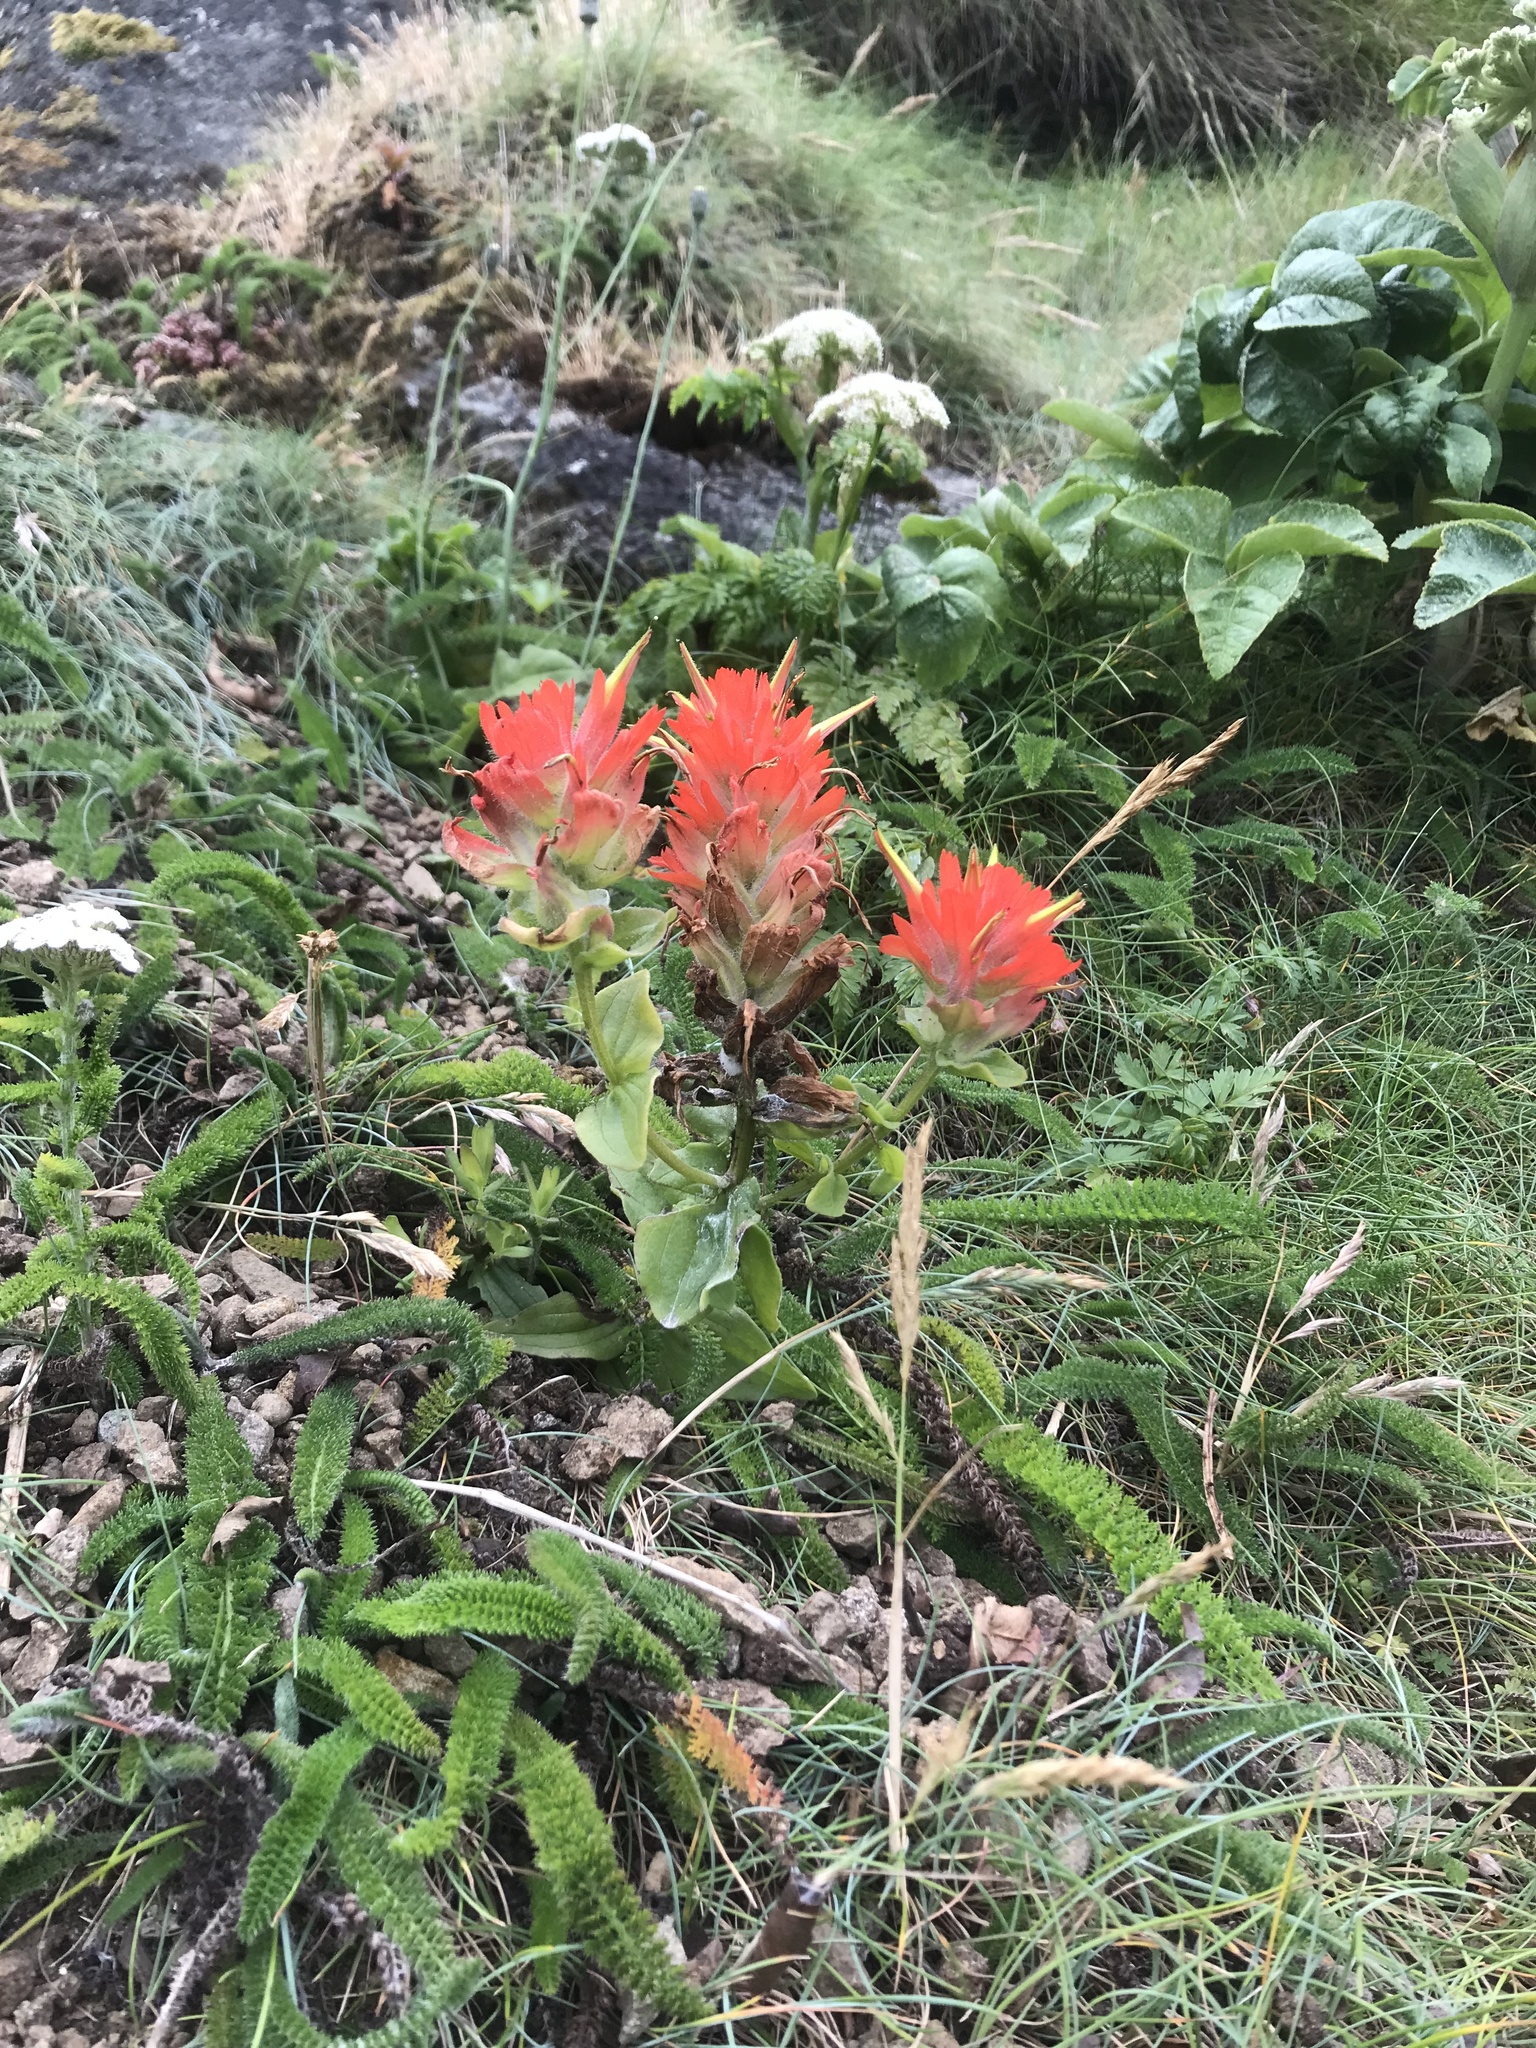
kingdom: Plantae
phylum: Tracheophyta
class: Magnoliopsida
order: Lamiales
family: Orobanchaceae
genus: Castilleja
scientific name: Castilleja litoralis
